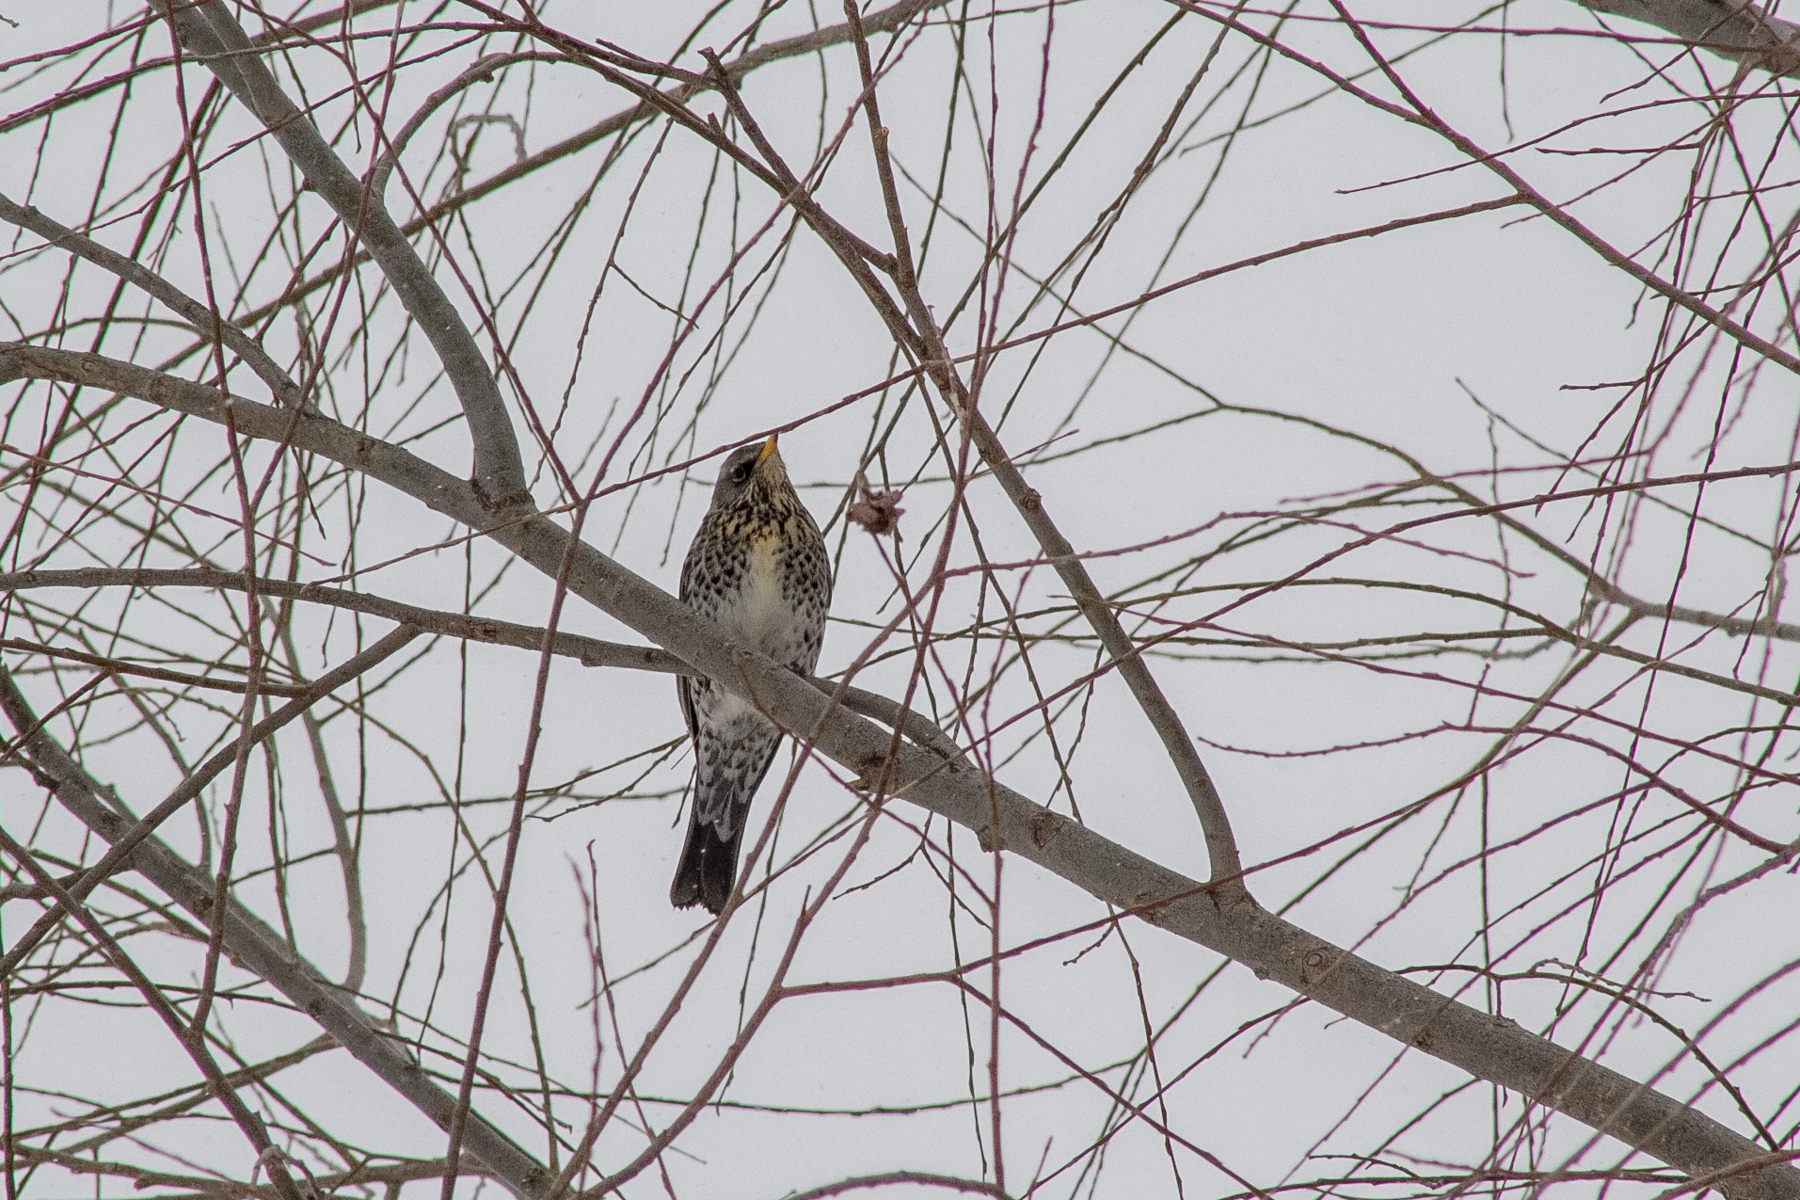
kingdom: Animalia
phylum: Chordata
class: Aves
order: Passeriformes
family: Turdidae
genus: Turdus
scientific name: Turdus pilaris
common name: Fieldfare
